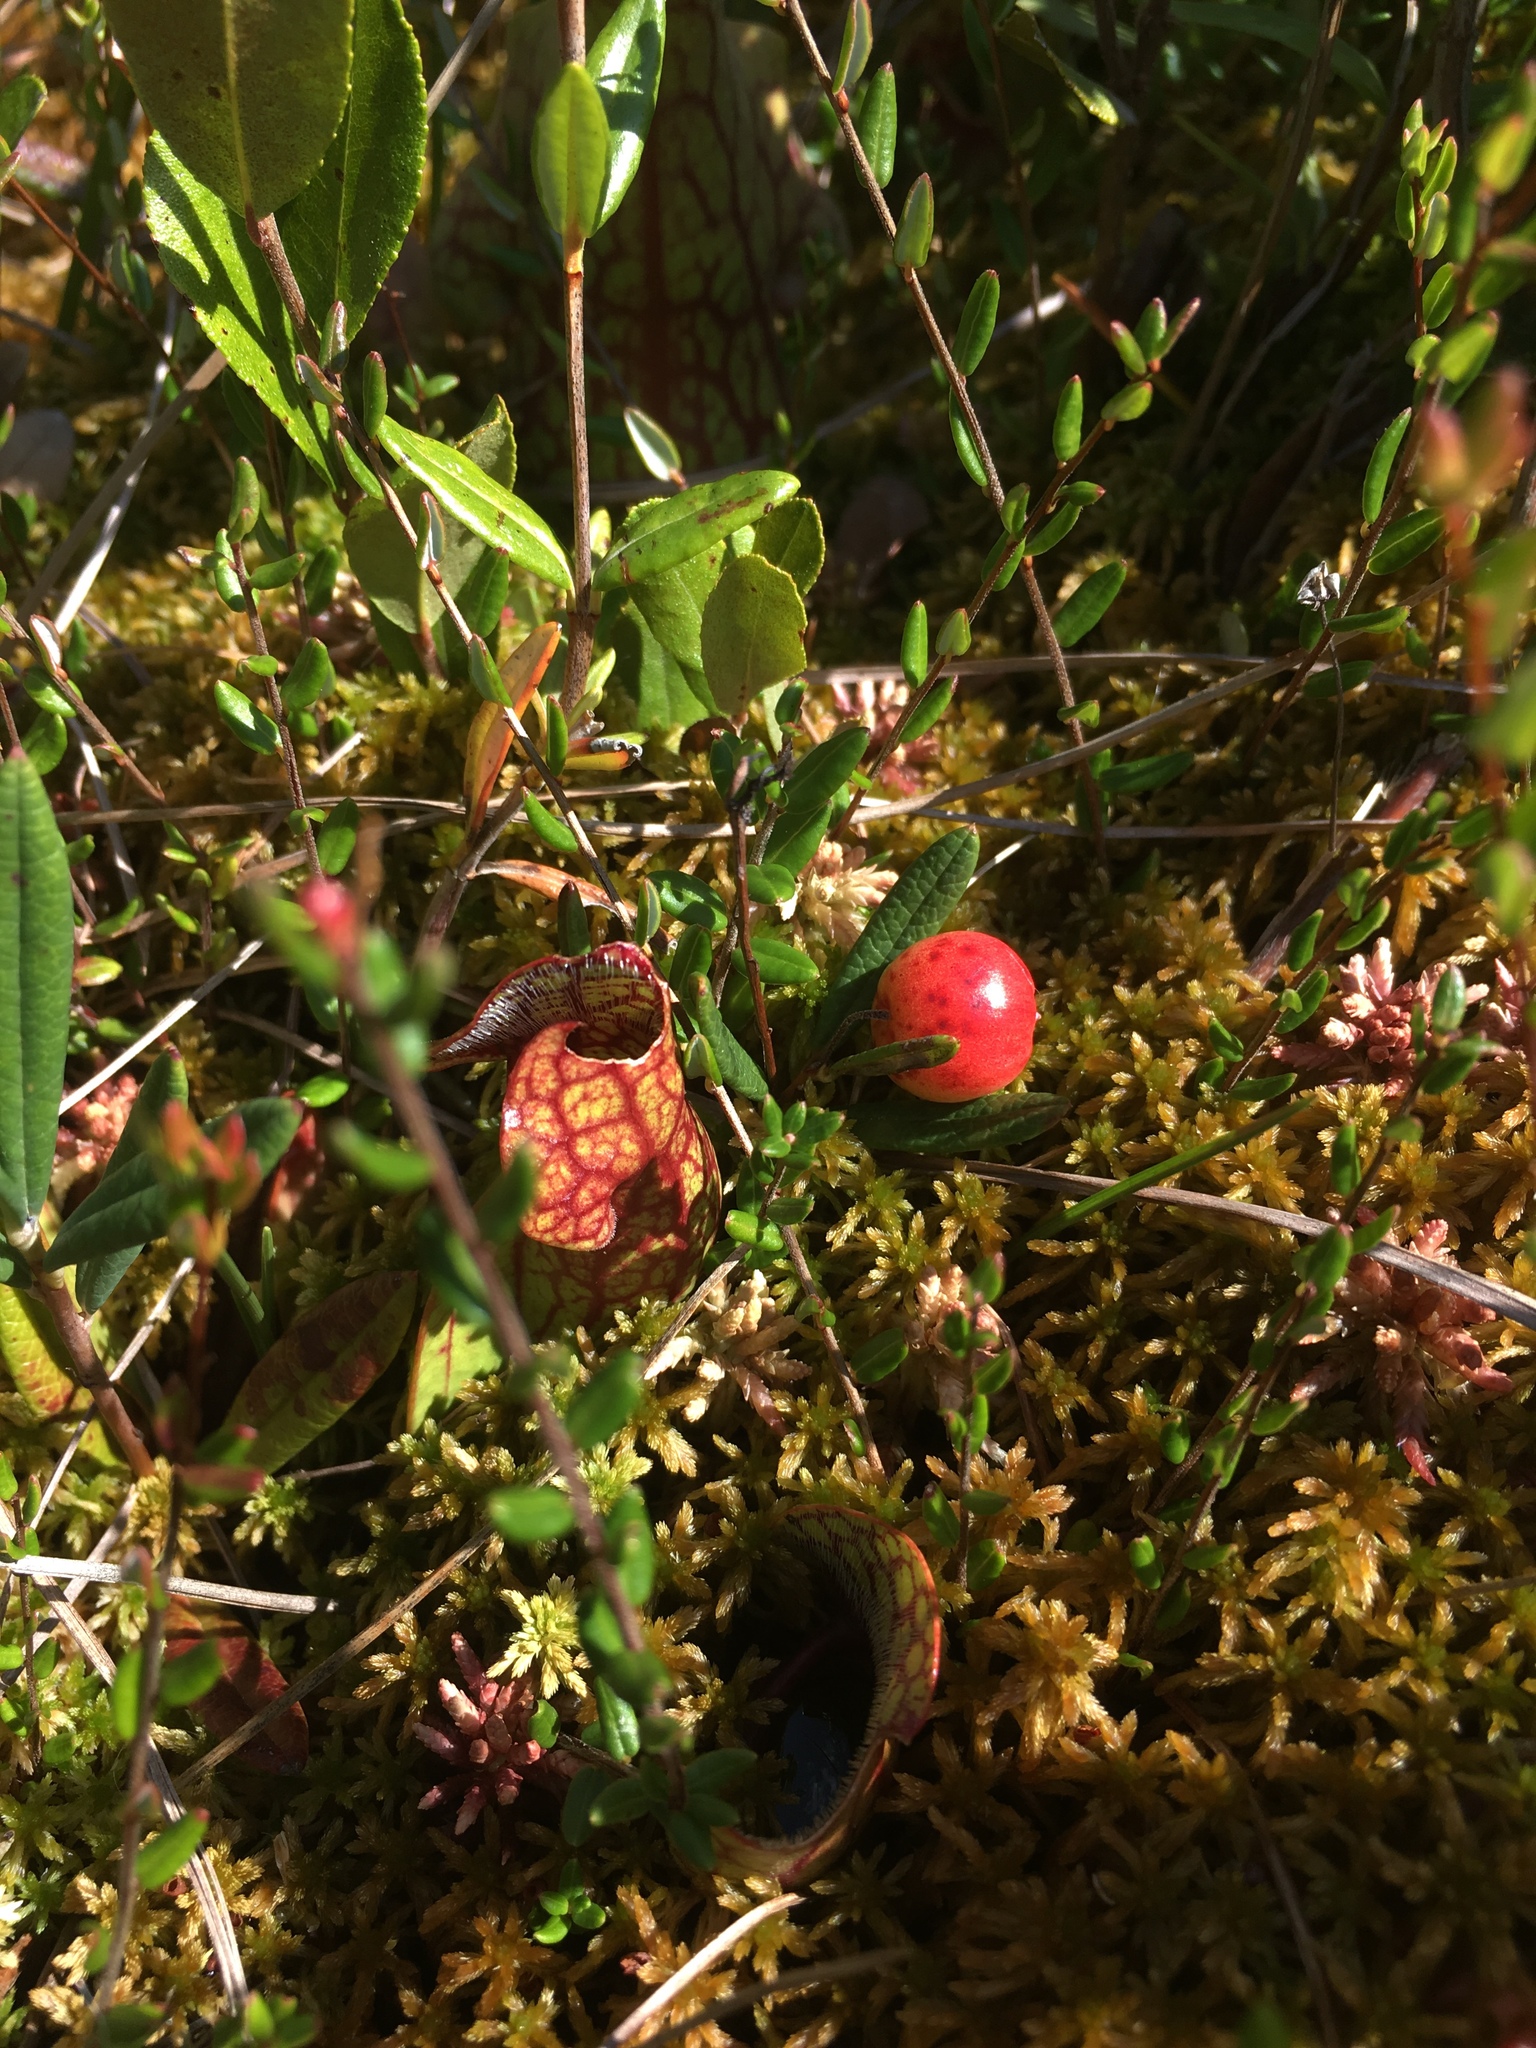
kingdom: Plantae
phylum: Tracheophyta
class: Magnoliopsida
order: Ericales
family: Ericaceae
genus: Vaccinium
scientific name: Vaccinium oxycoccos
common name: Cranberry
